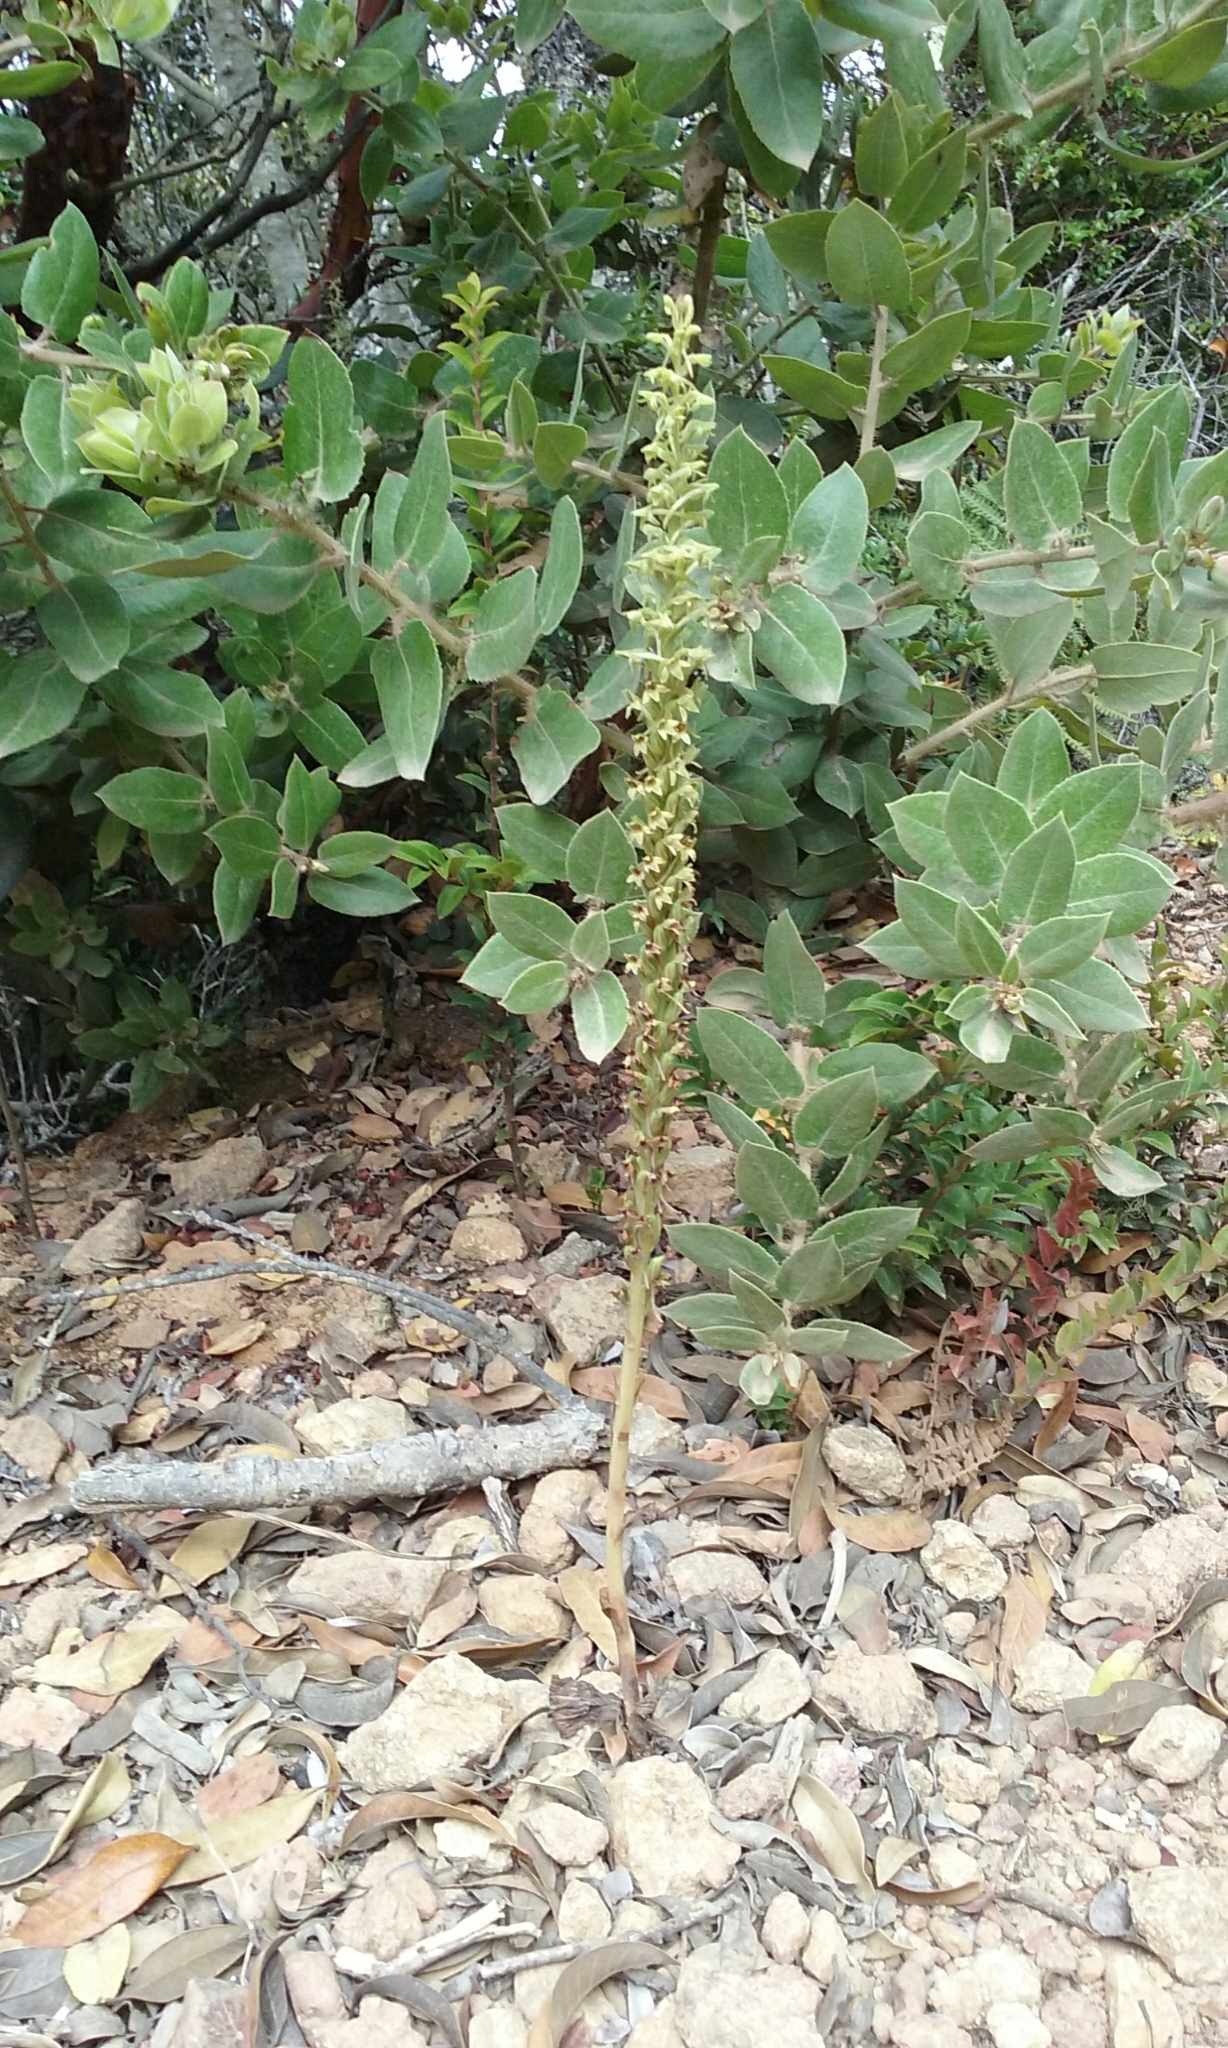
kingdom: Plantae
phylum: Tracheophyta
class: Liliopsida
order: Asparagales
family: Orchidaceae
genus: Platanthera
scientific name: Platanthera elongata
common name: Dense-flowered rein orchid
